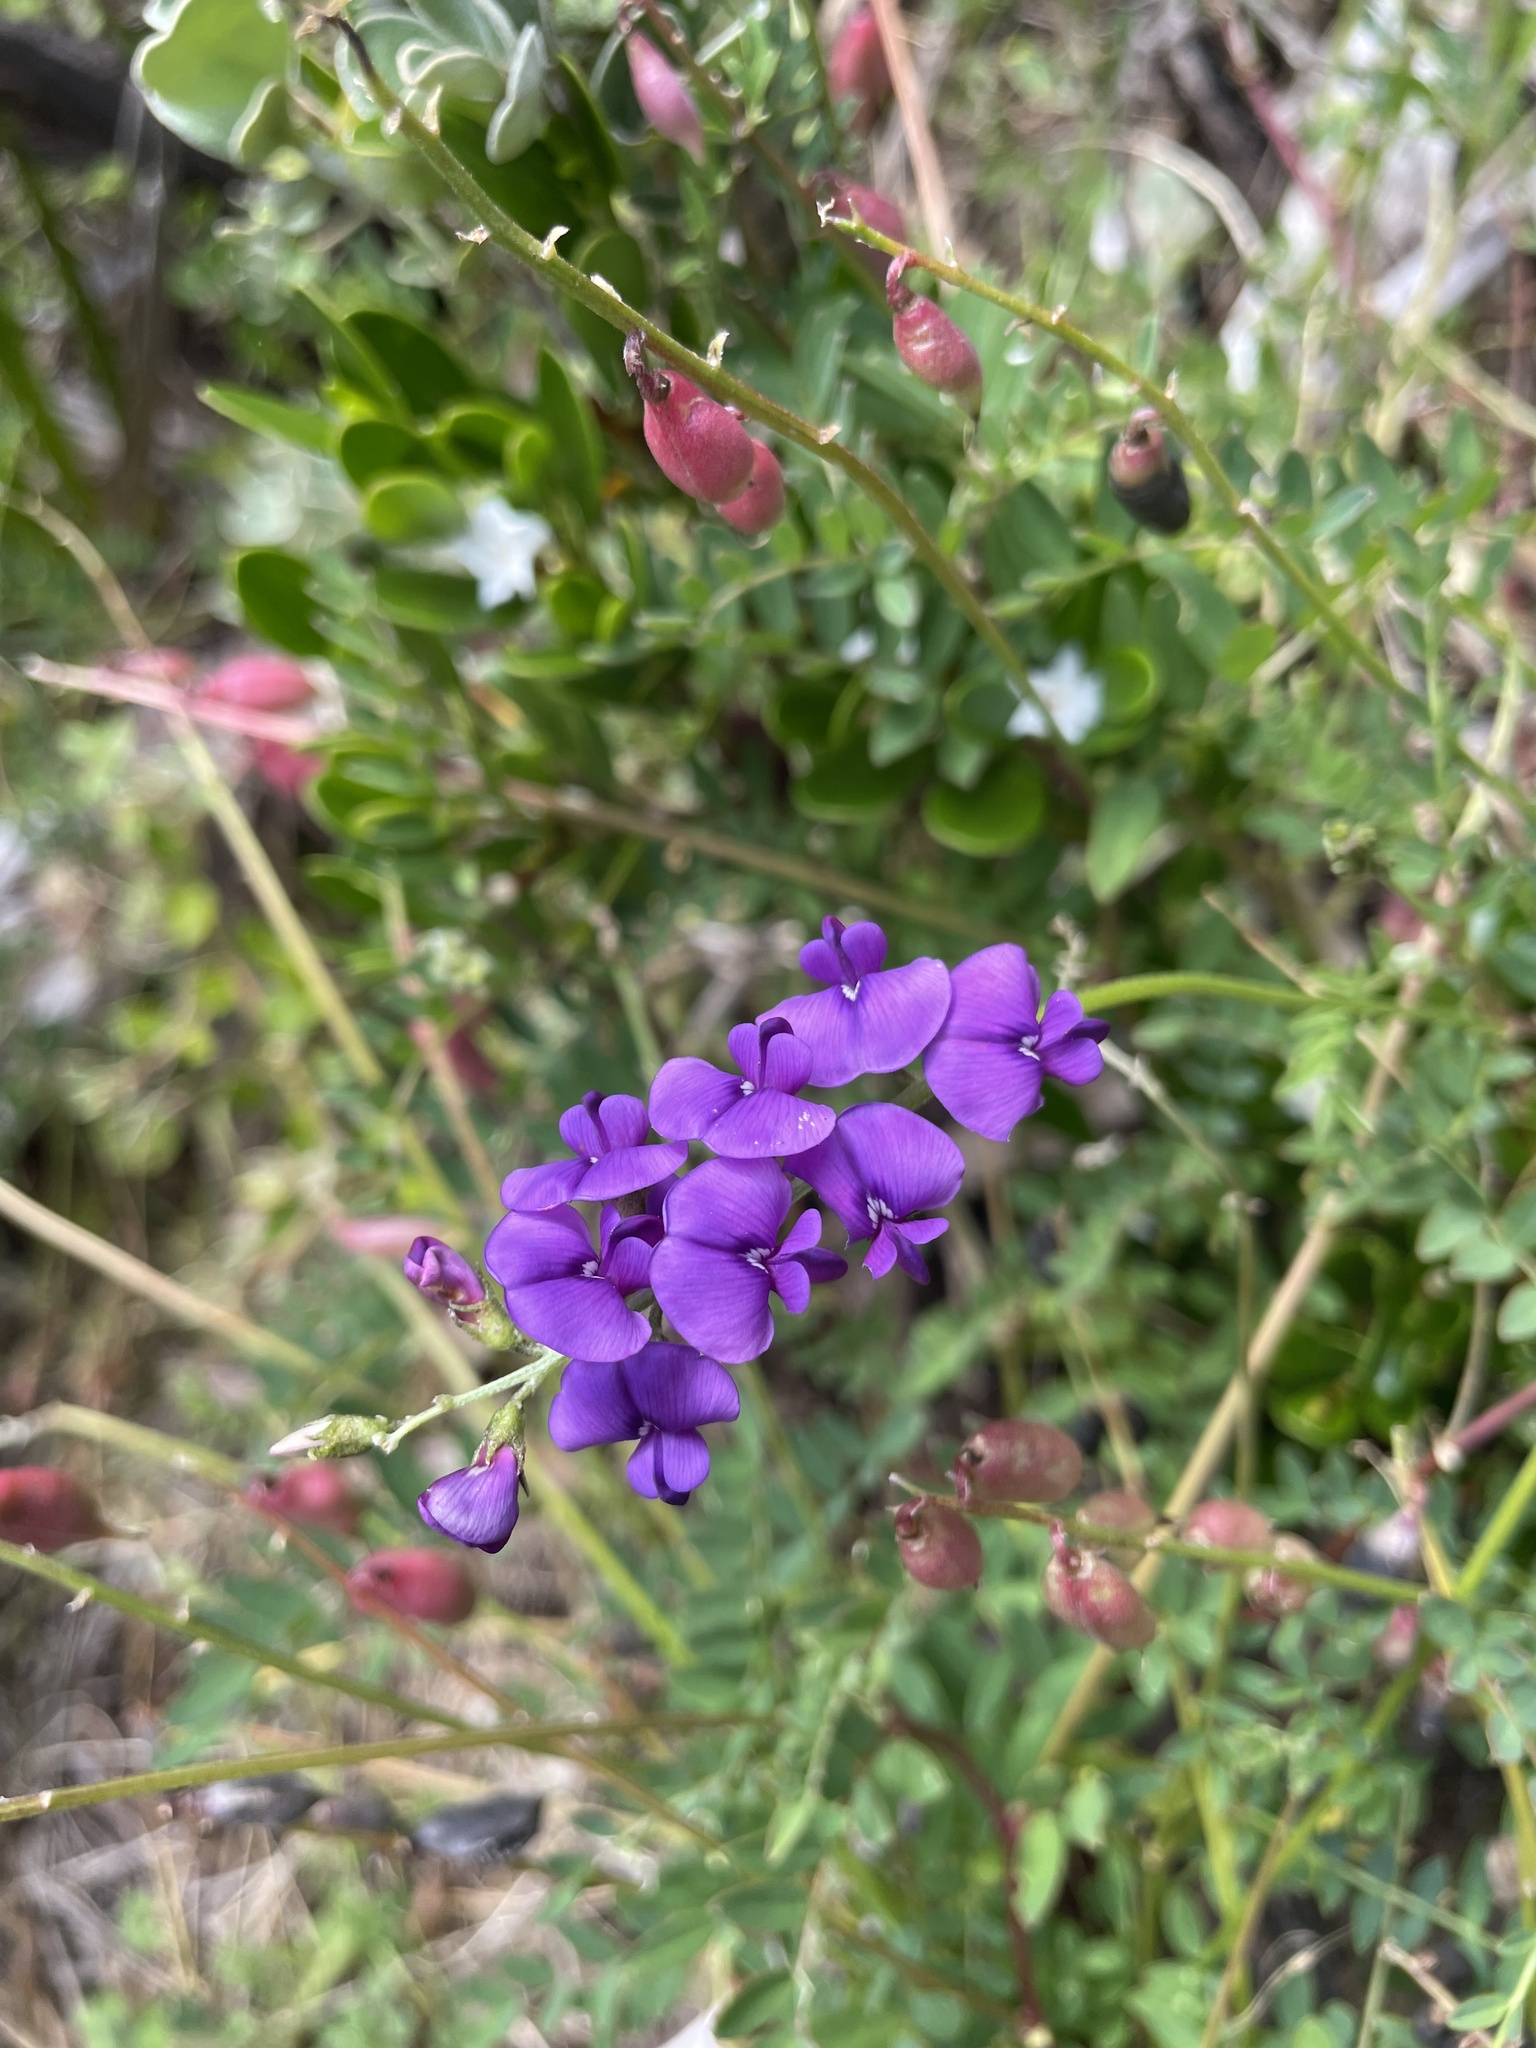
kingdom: Plantae
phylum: Tracheophyta
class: Magnoliopsida
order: Fabales
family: Fabaceae
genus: Swainsona
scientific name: Swainsona lessertiifolia
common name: Bog-pea
